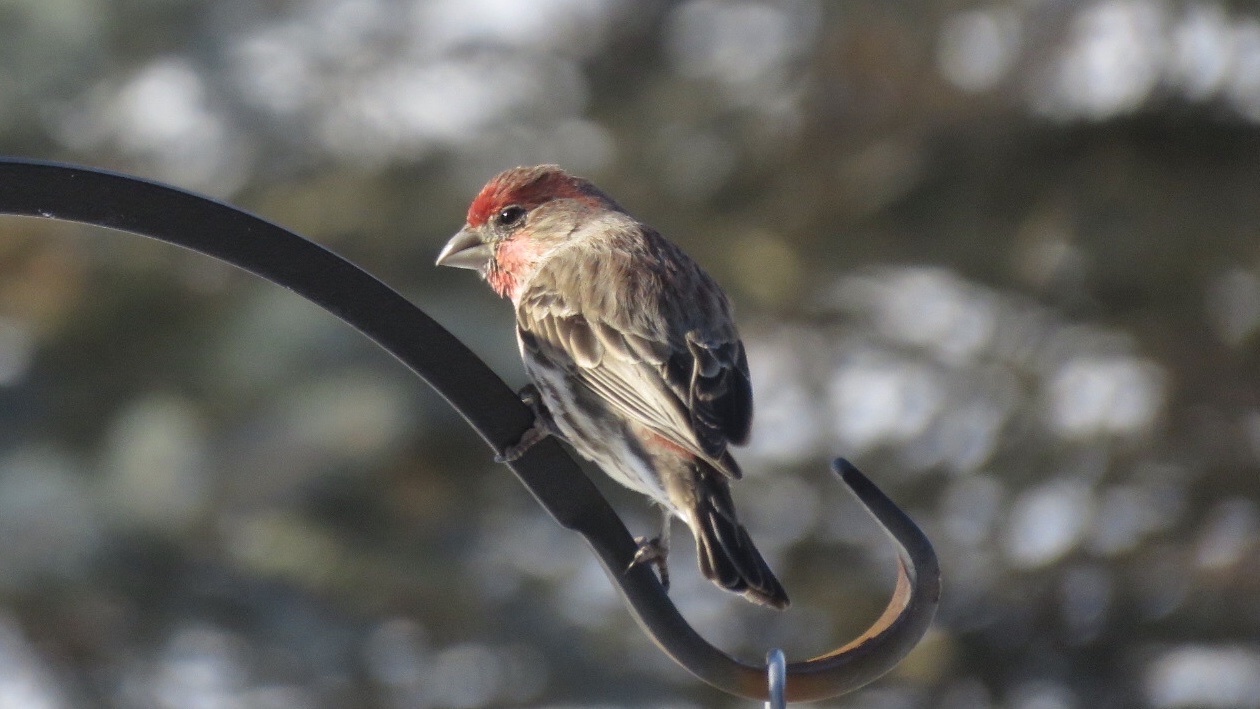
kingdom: Animalia
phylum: Chordata
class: Aves
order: Passeriformes
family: Fringillidae
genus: Haemorhous
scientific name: Haemorhous mexicanus
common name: House finch
